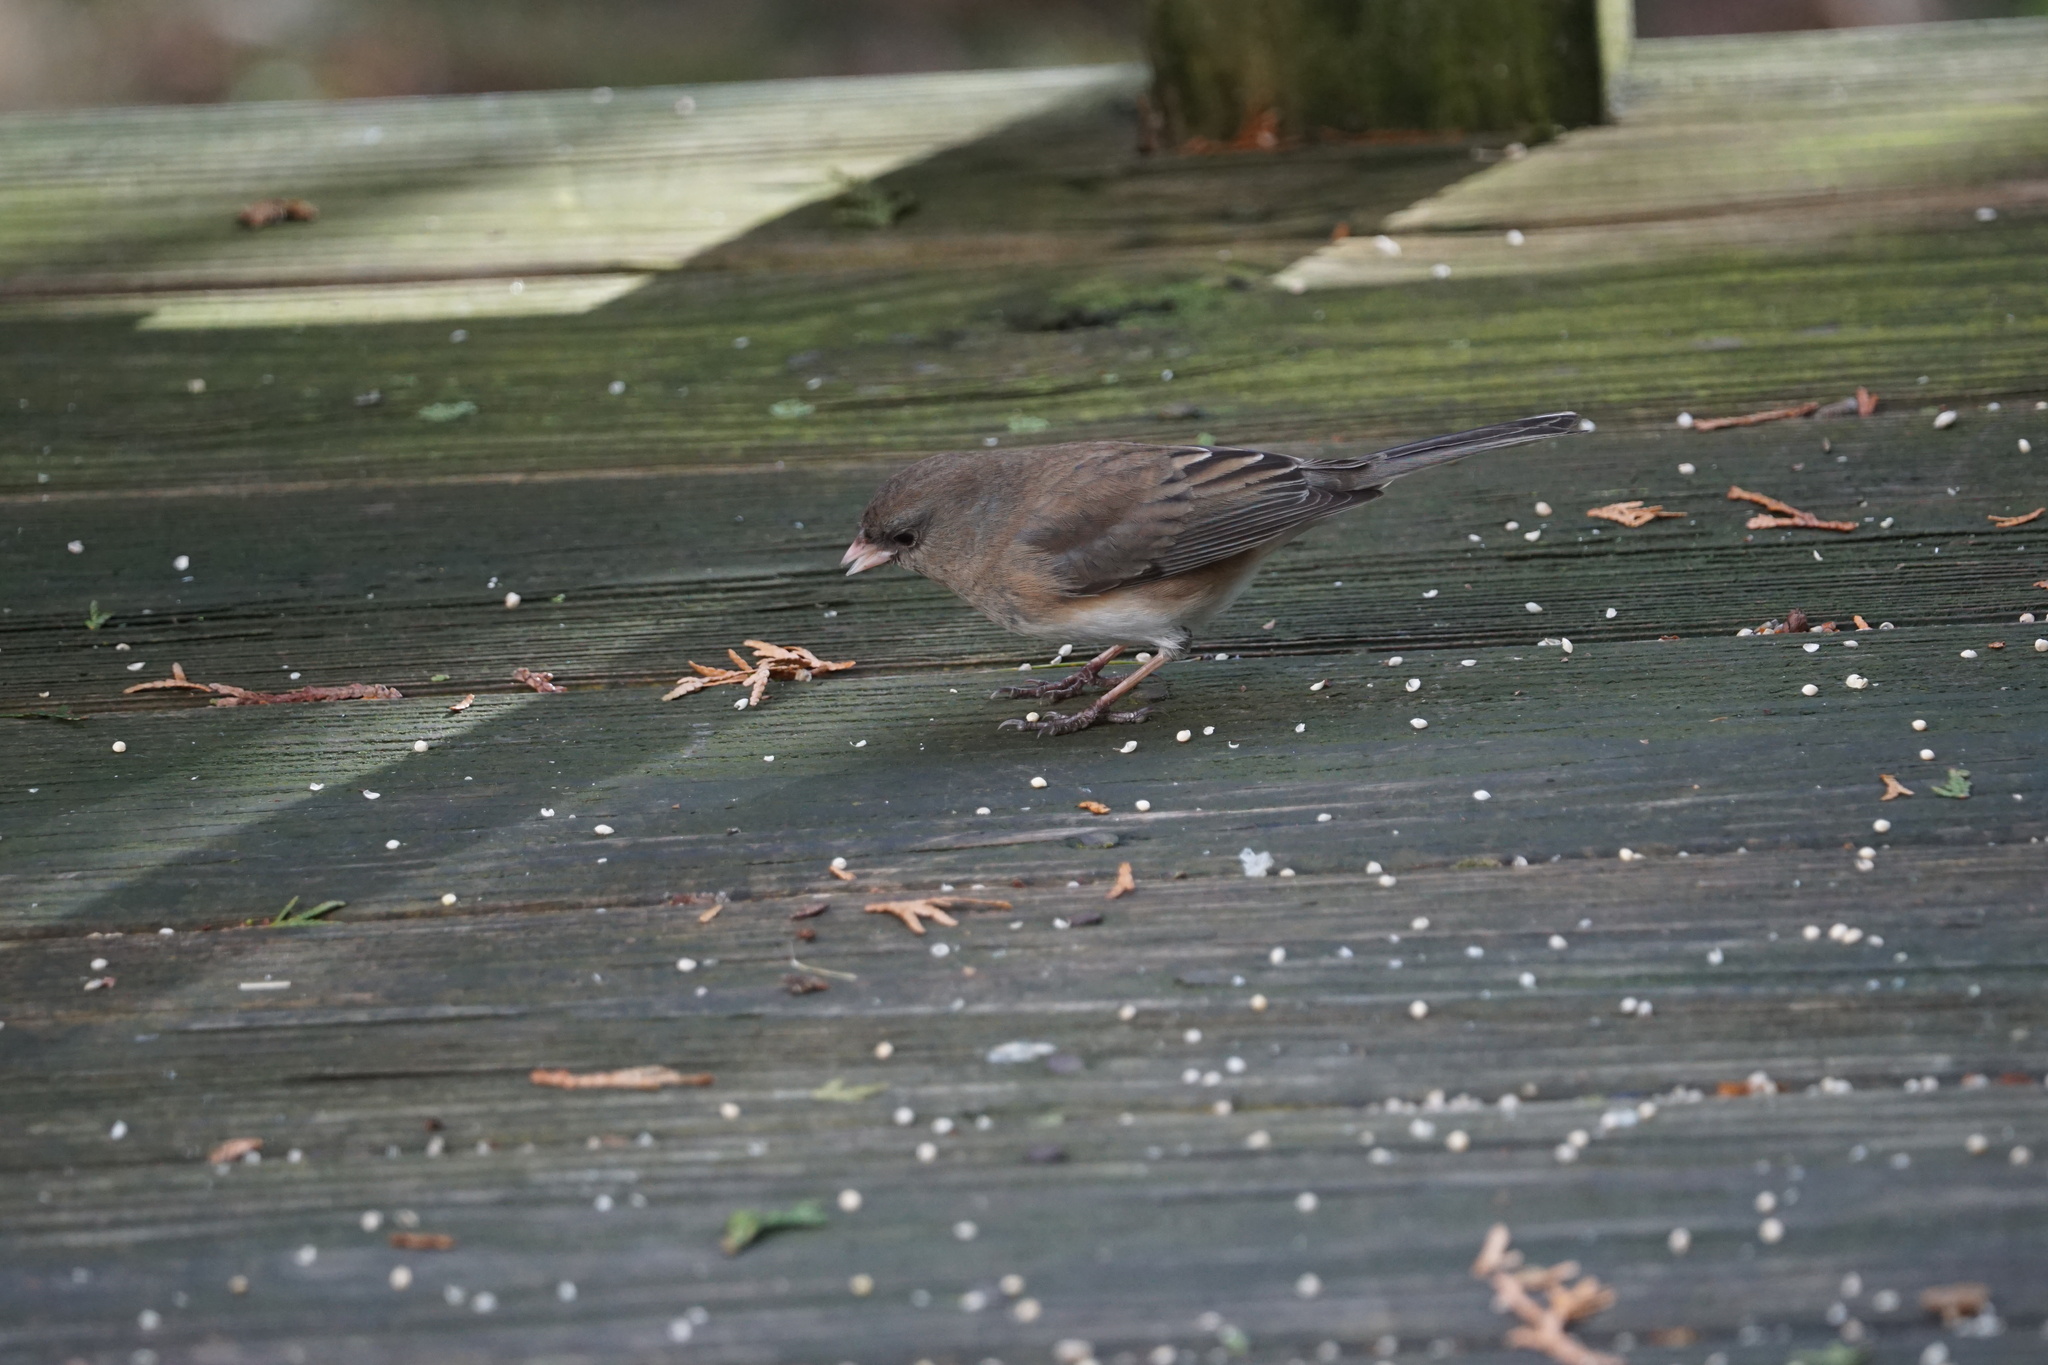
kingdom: Animalia
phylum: Chordata
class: Aves
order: Passeriformes
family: Passerellidae
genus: Junco
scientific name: Junco hyemalis
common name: Dark-eyed junco
